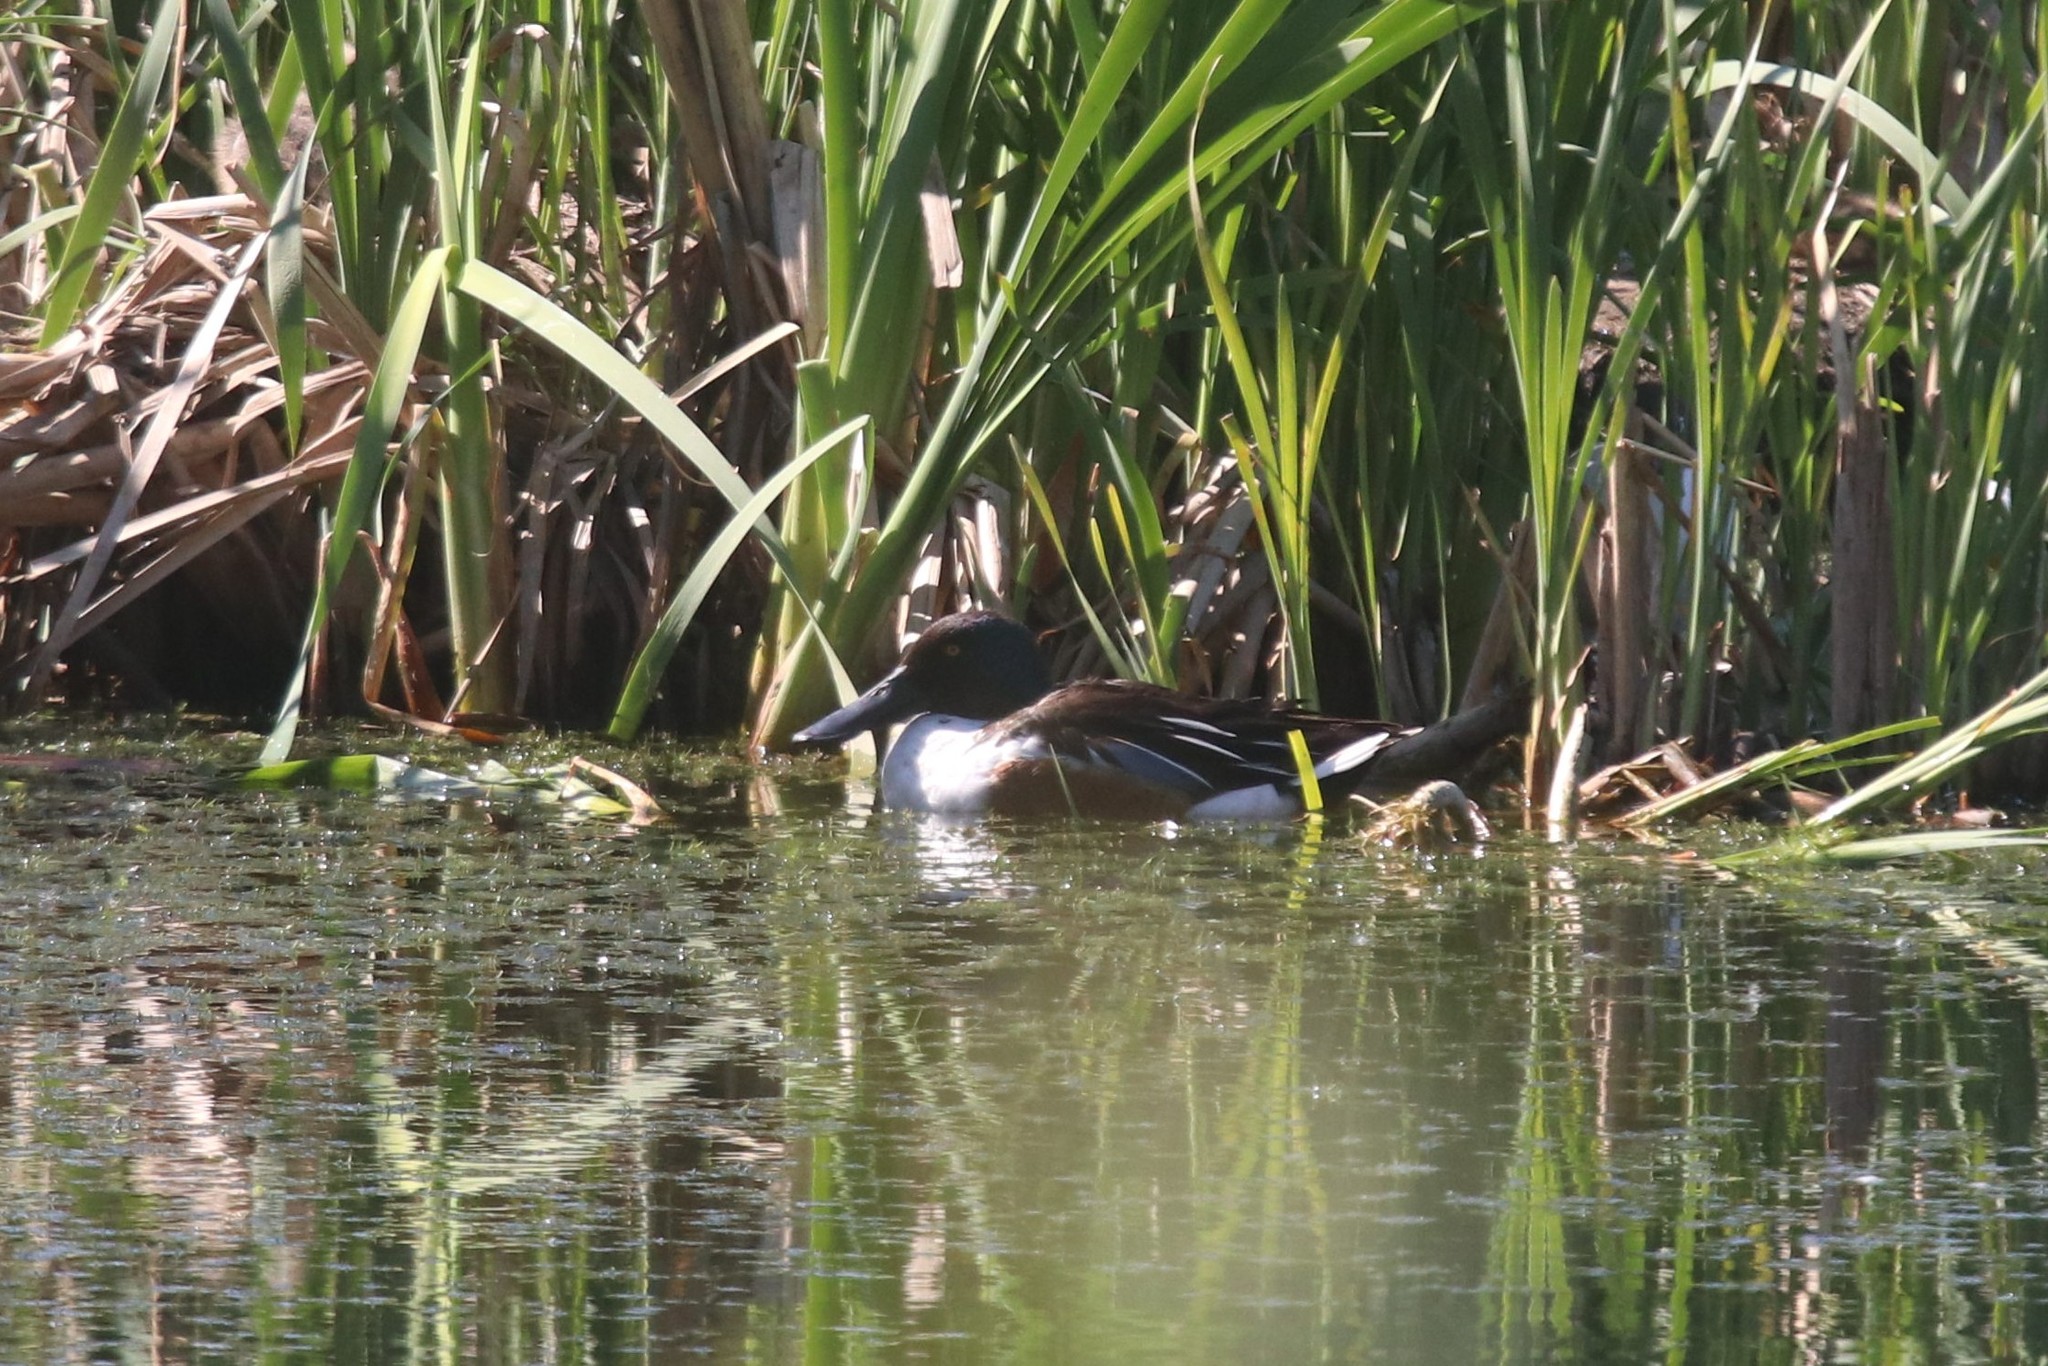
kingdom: Animalia
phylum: Chordata
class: Aves
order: Anseriformes
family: Anatidae
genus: Spatula
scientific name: Spatula clypeata
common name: Northern shoveler
